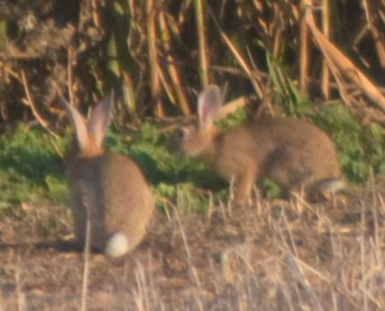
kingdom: Animalia
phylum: Chordata
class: Mammalia
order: Lagomorpha
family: Leporidae
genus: Oryctolagus
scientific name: Oryctolagus cuniculus
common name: European rabbit
